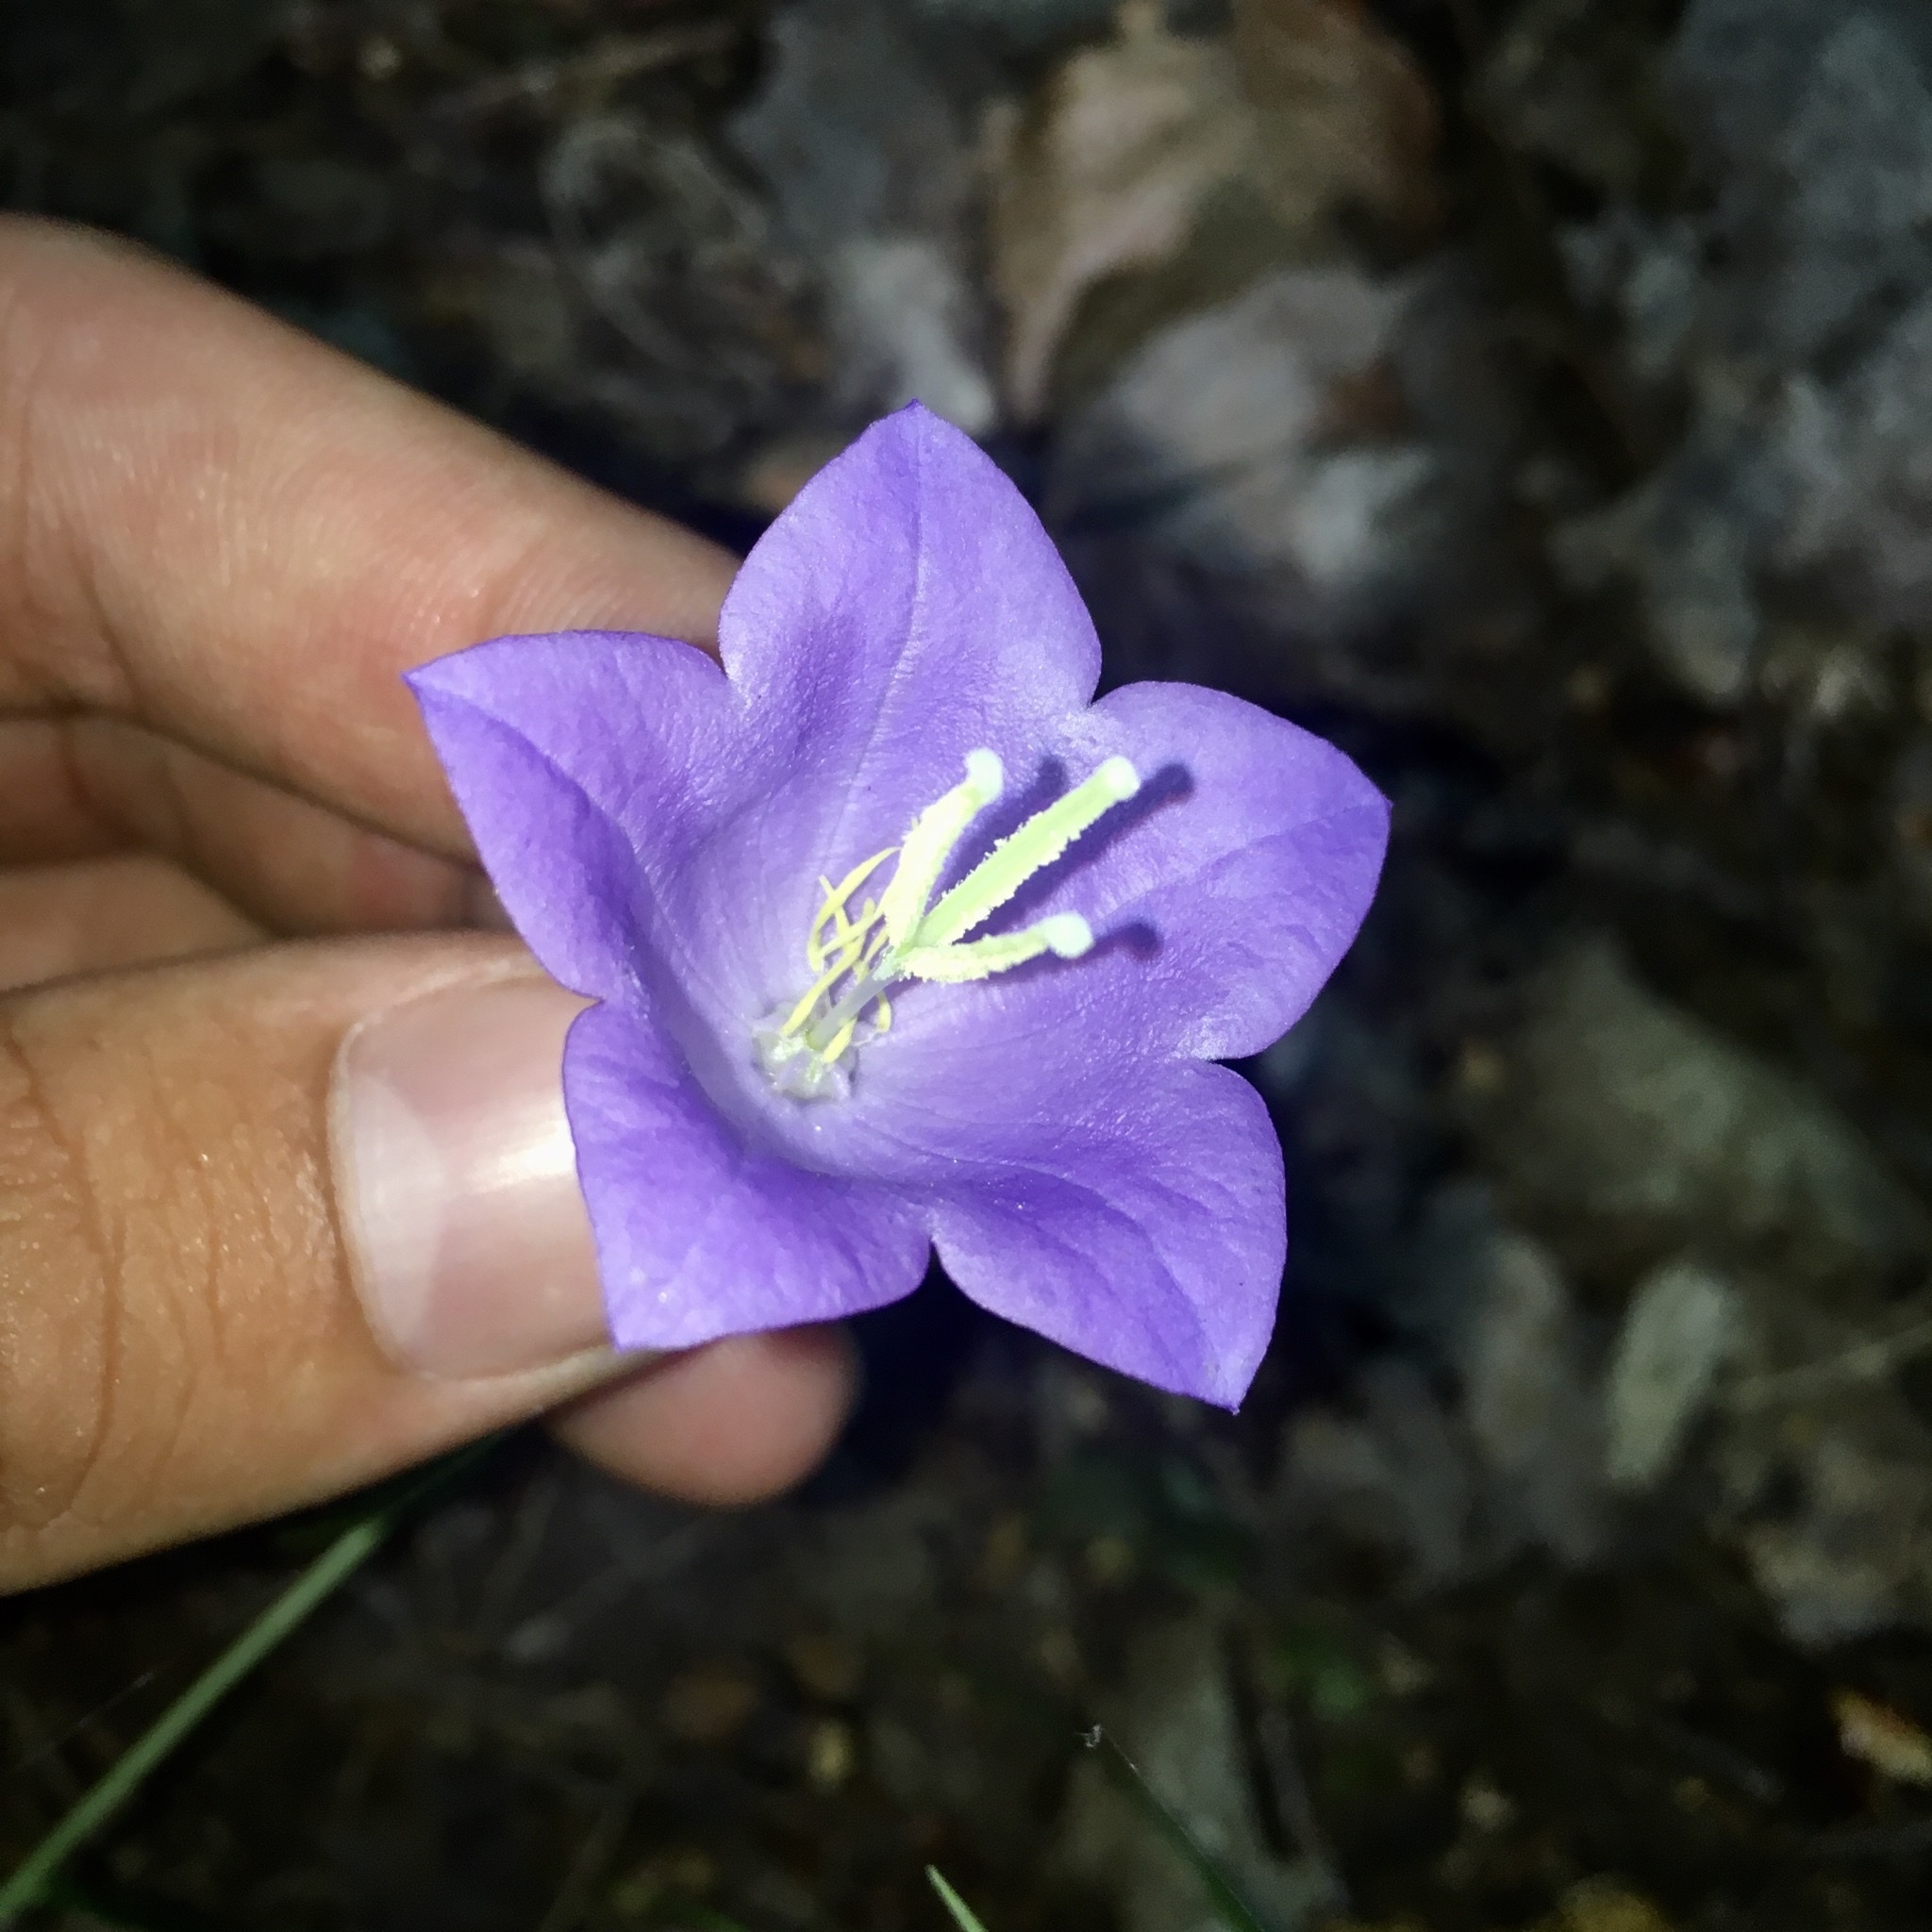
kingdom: Plantae
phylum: Tracheophyta
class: Magnoliopsida
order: Asterales
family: Campanulaceae
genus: Campanula
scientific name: Campanula persicifolia
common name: Peach-leaved bellflower
